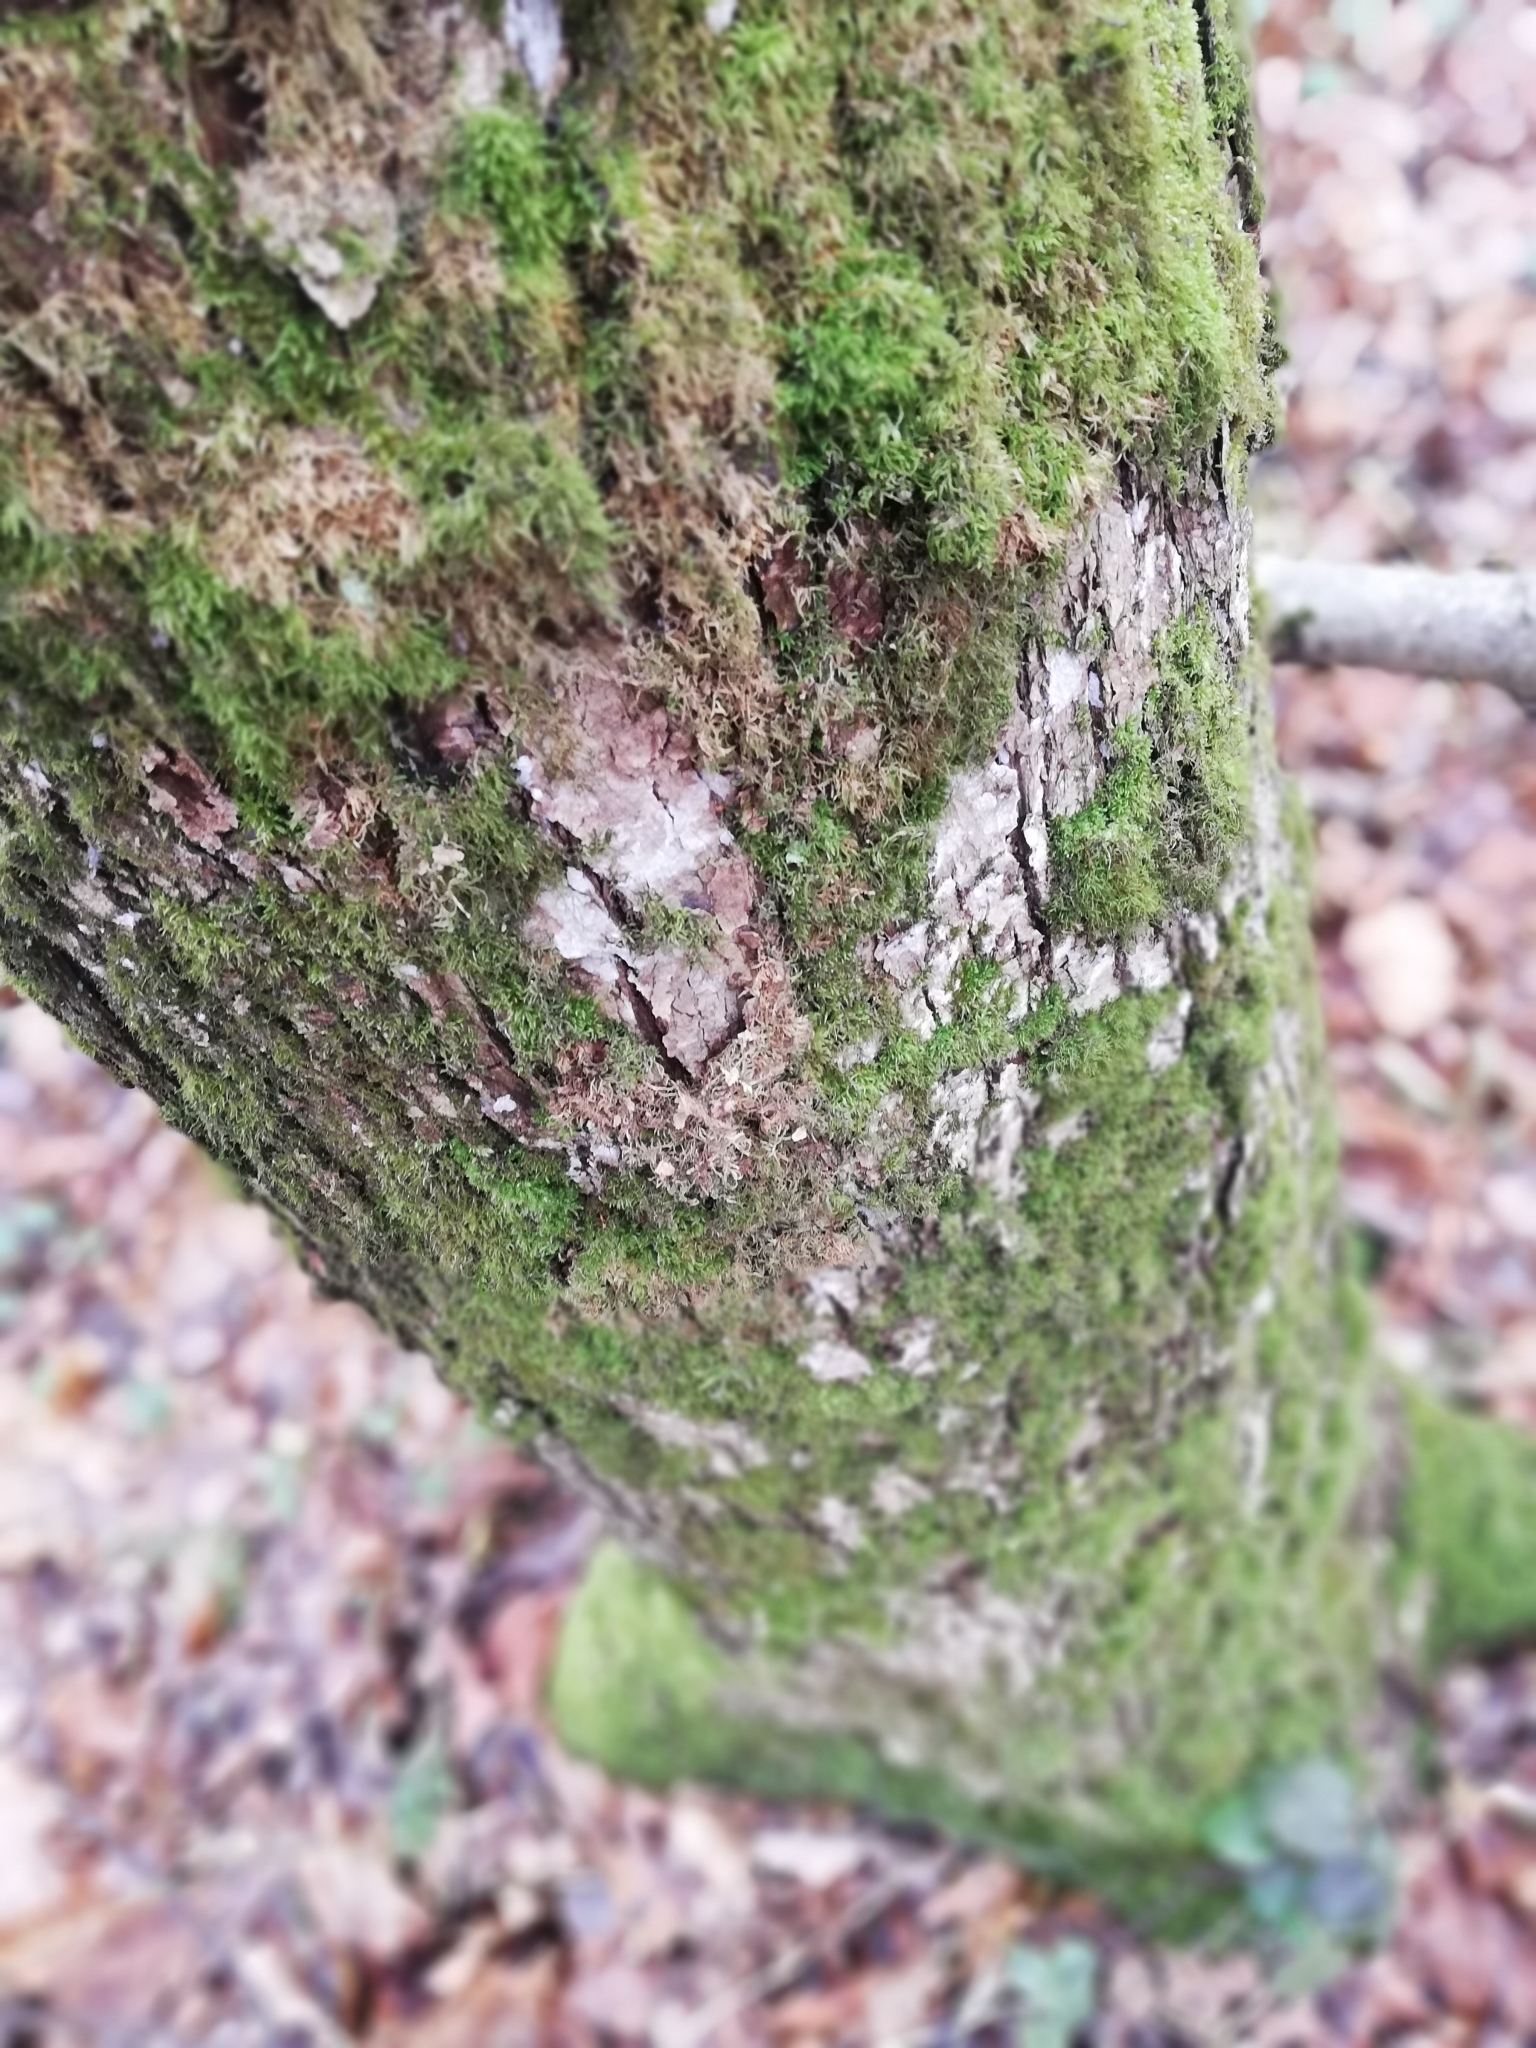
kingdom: Plantae
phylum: Bryophyta
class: Bryopsida
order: Hypnales
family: Hypnaceae
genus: Hypnum
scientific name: Hypnum cupressiforme
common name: Cypress-leaved plait-moss
